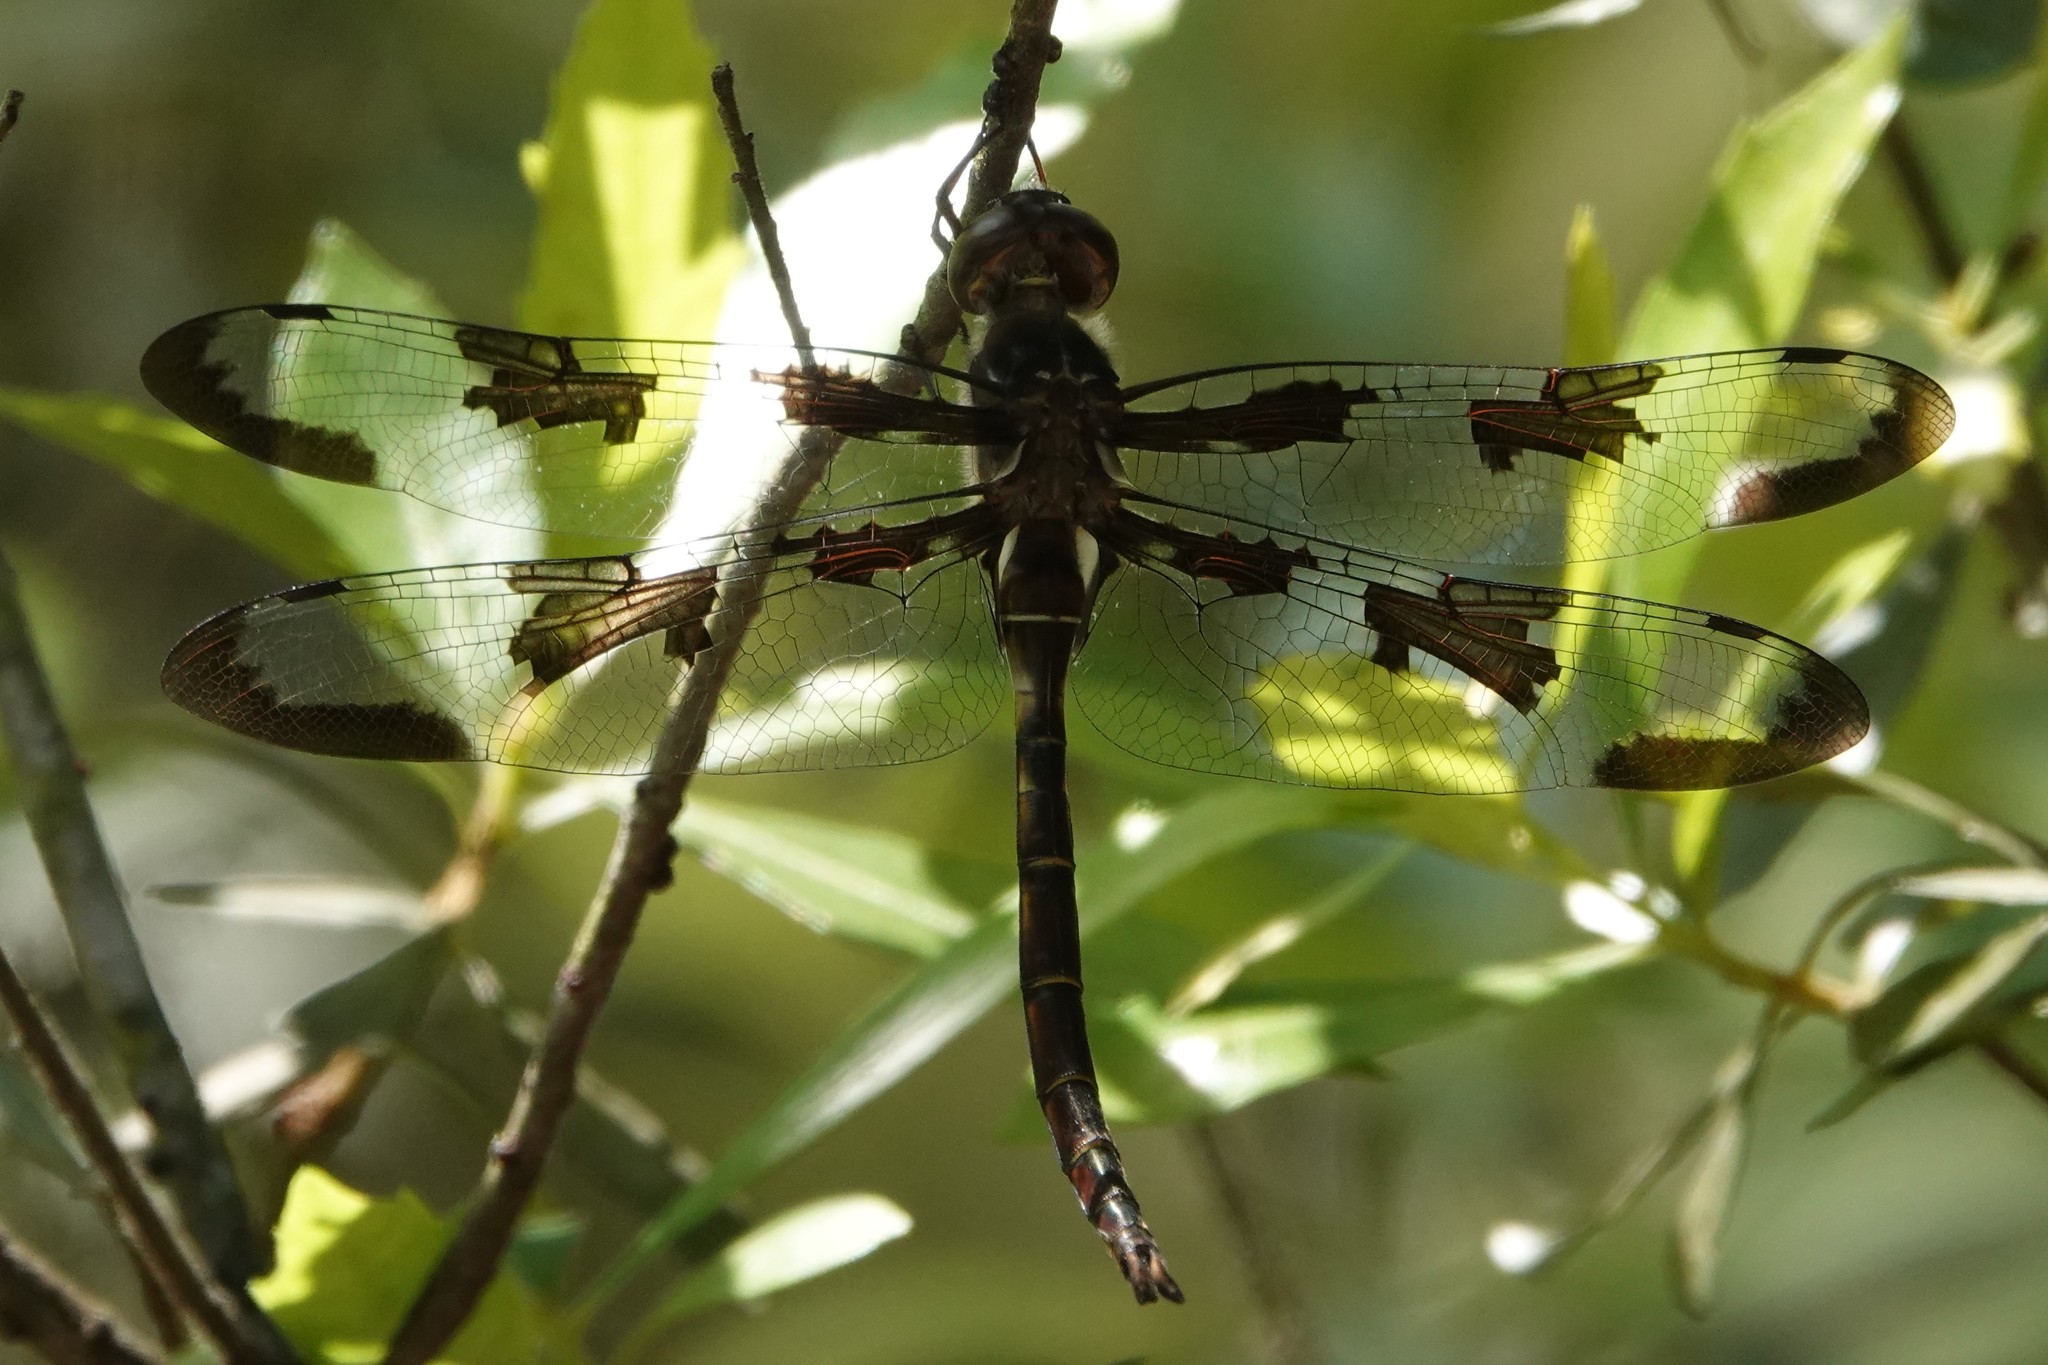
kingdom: Animalia
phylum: Arthropoda
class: Insecta
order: Odonata
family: Corduliidae
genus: Epitheca
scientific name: Epitheca princeps
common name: Prince baskettail
